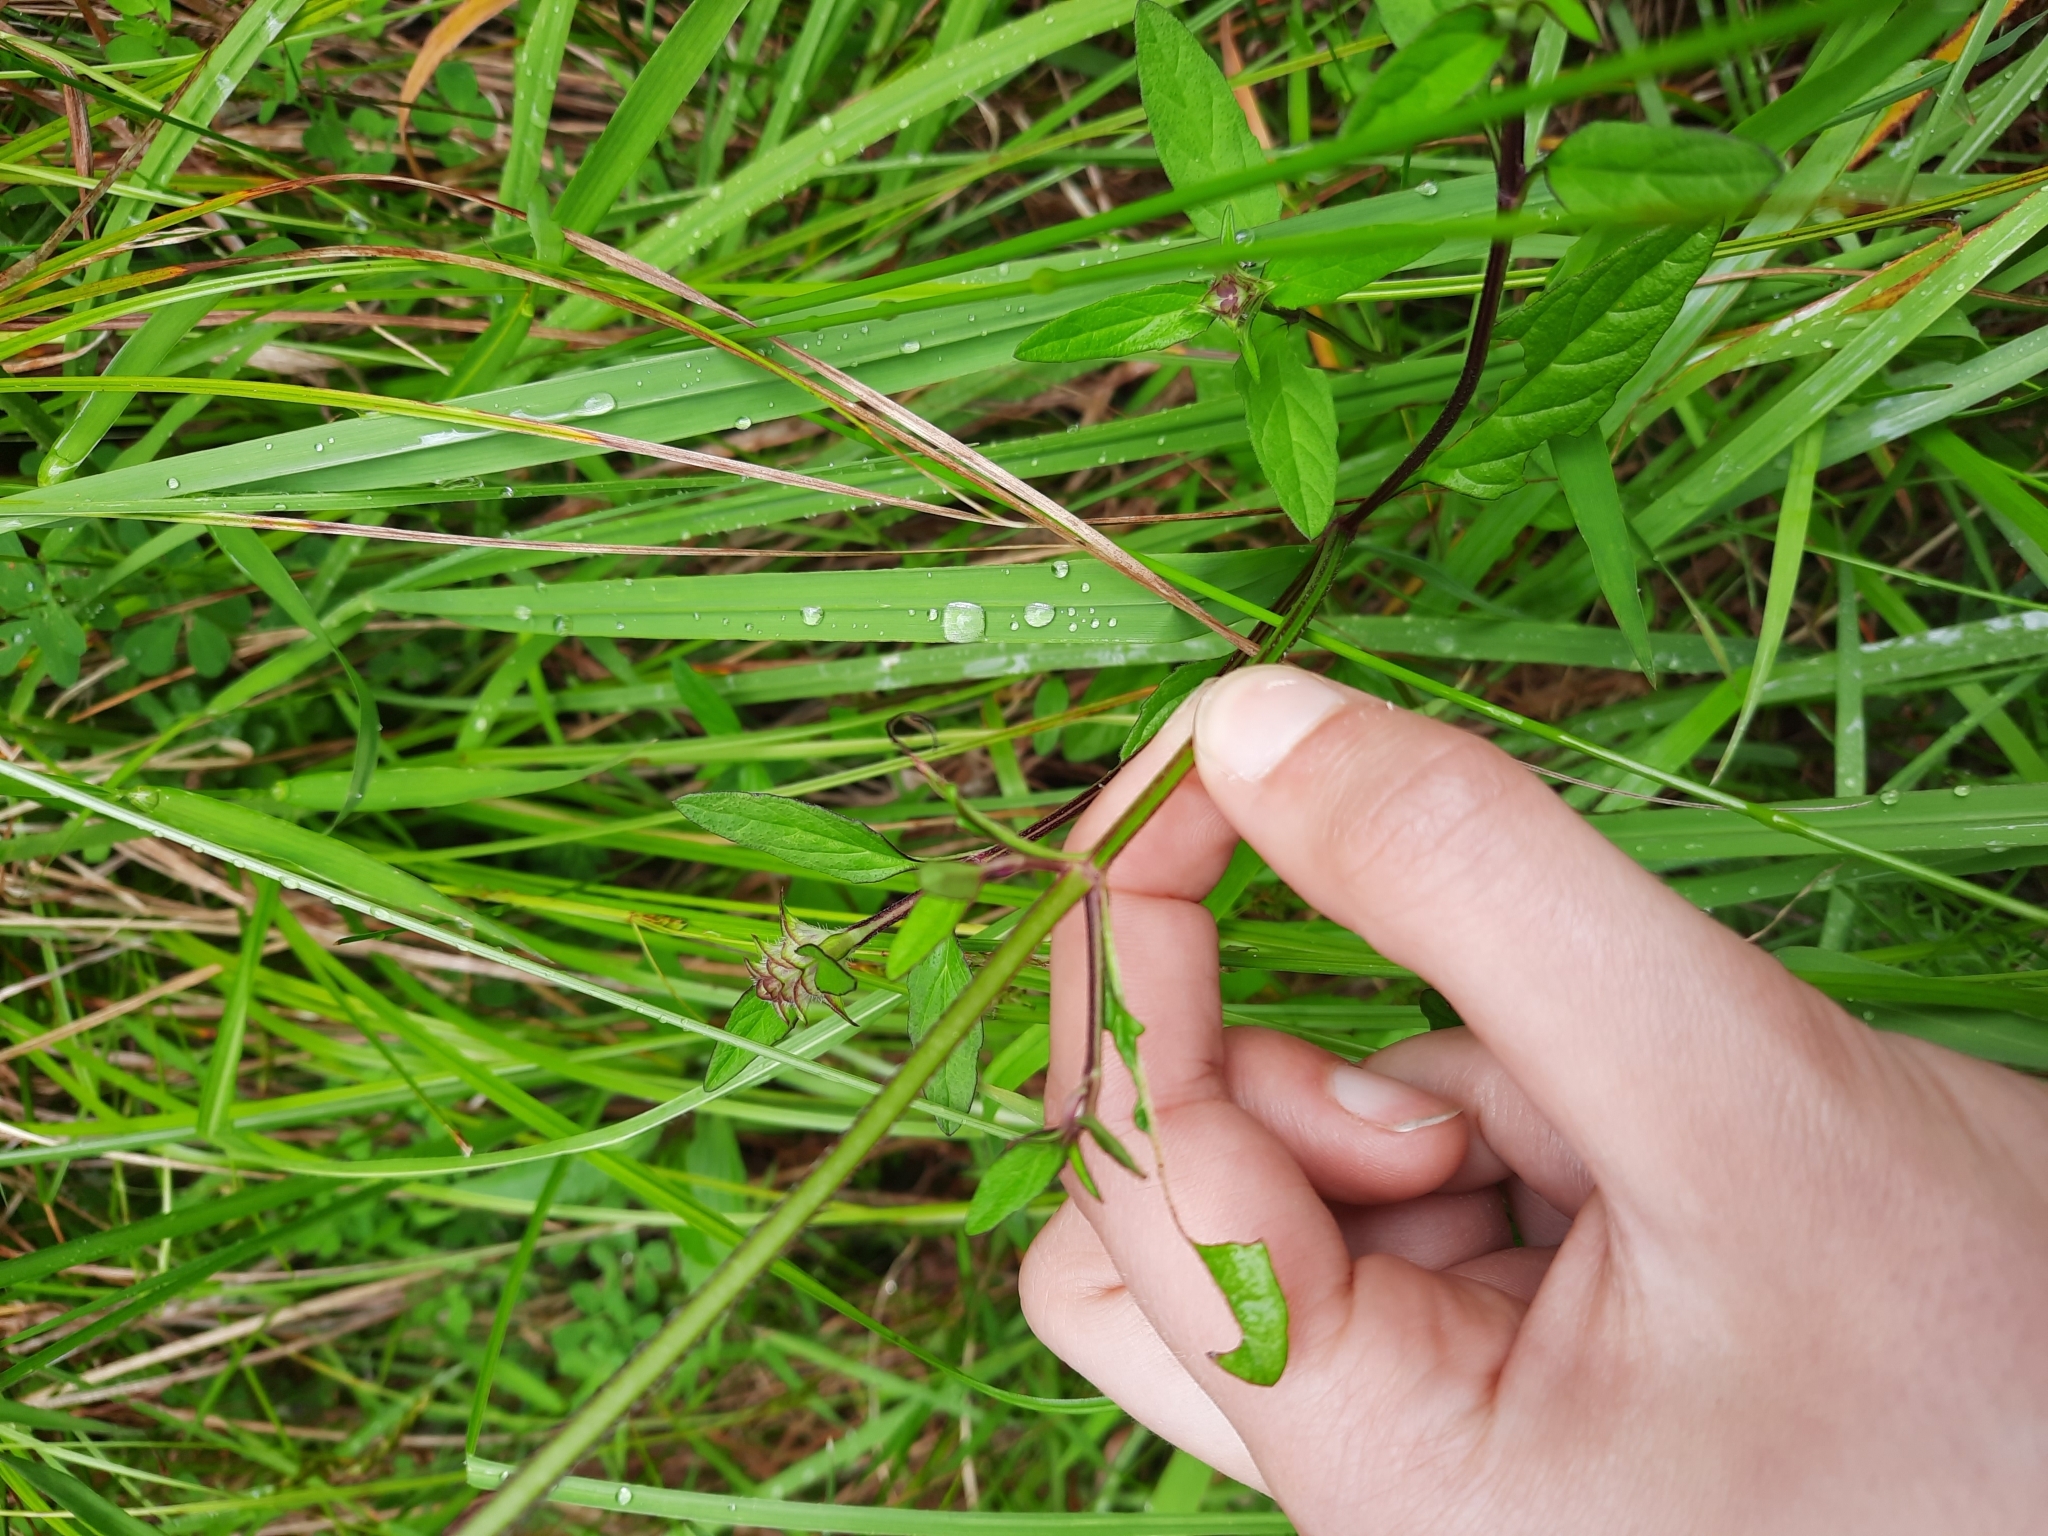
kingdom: Plantae
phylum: Tracheophyta
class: Magnoliopsida
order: Lamiales
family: Lamiaceae
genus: Prunella
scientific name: Prunella vulgaris
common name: Heal-all
